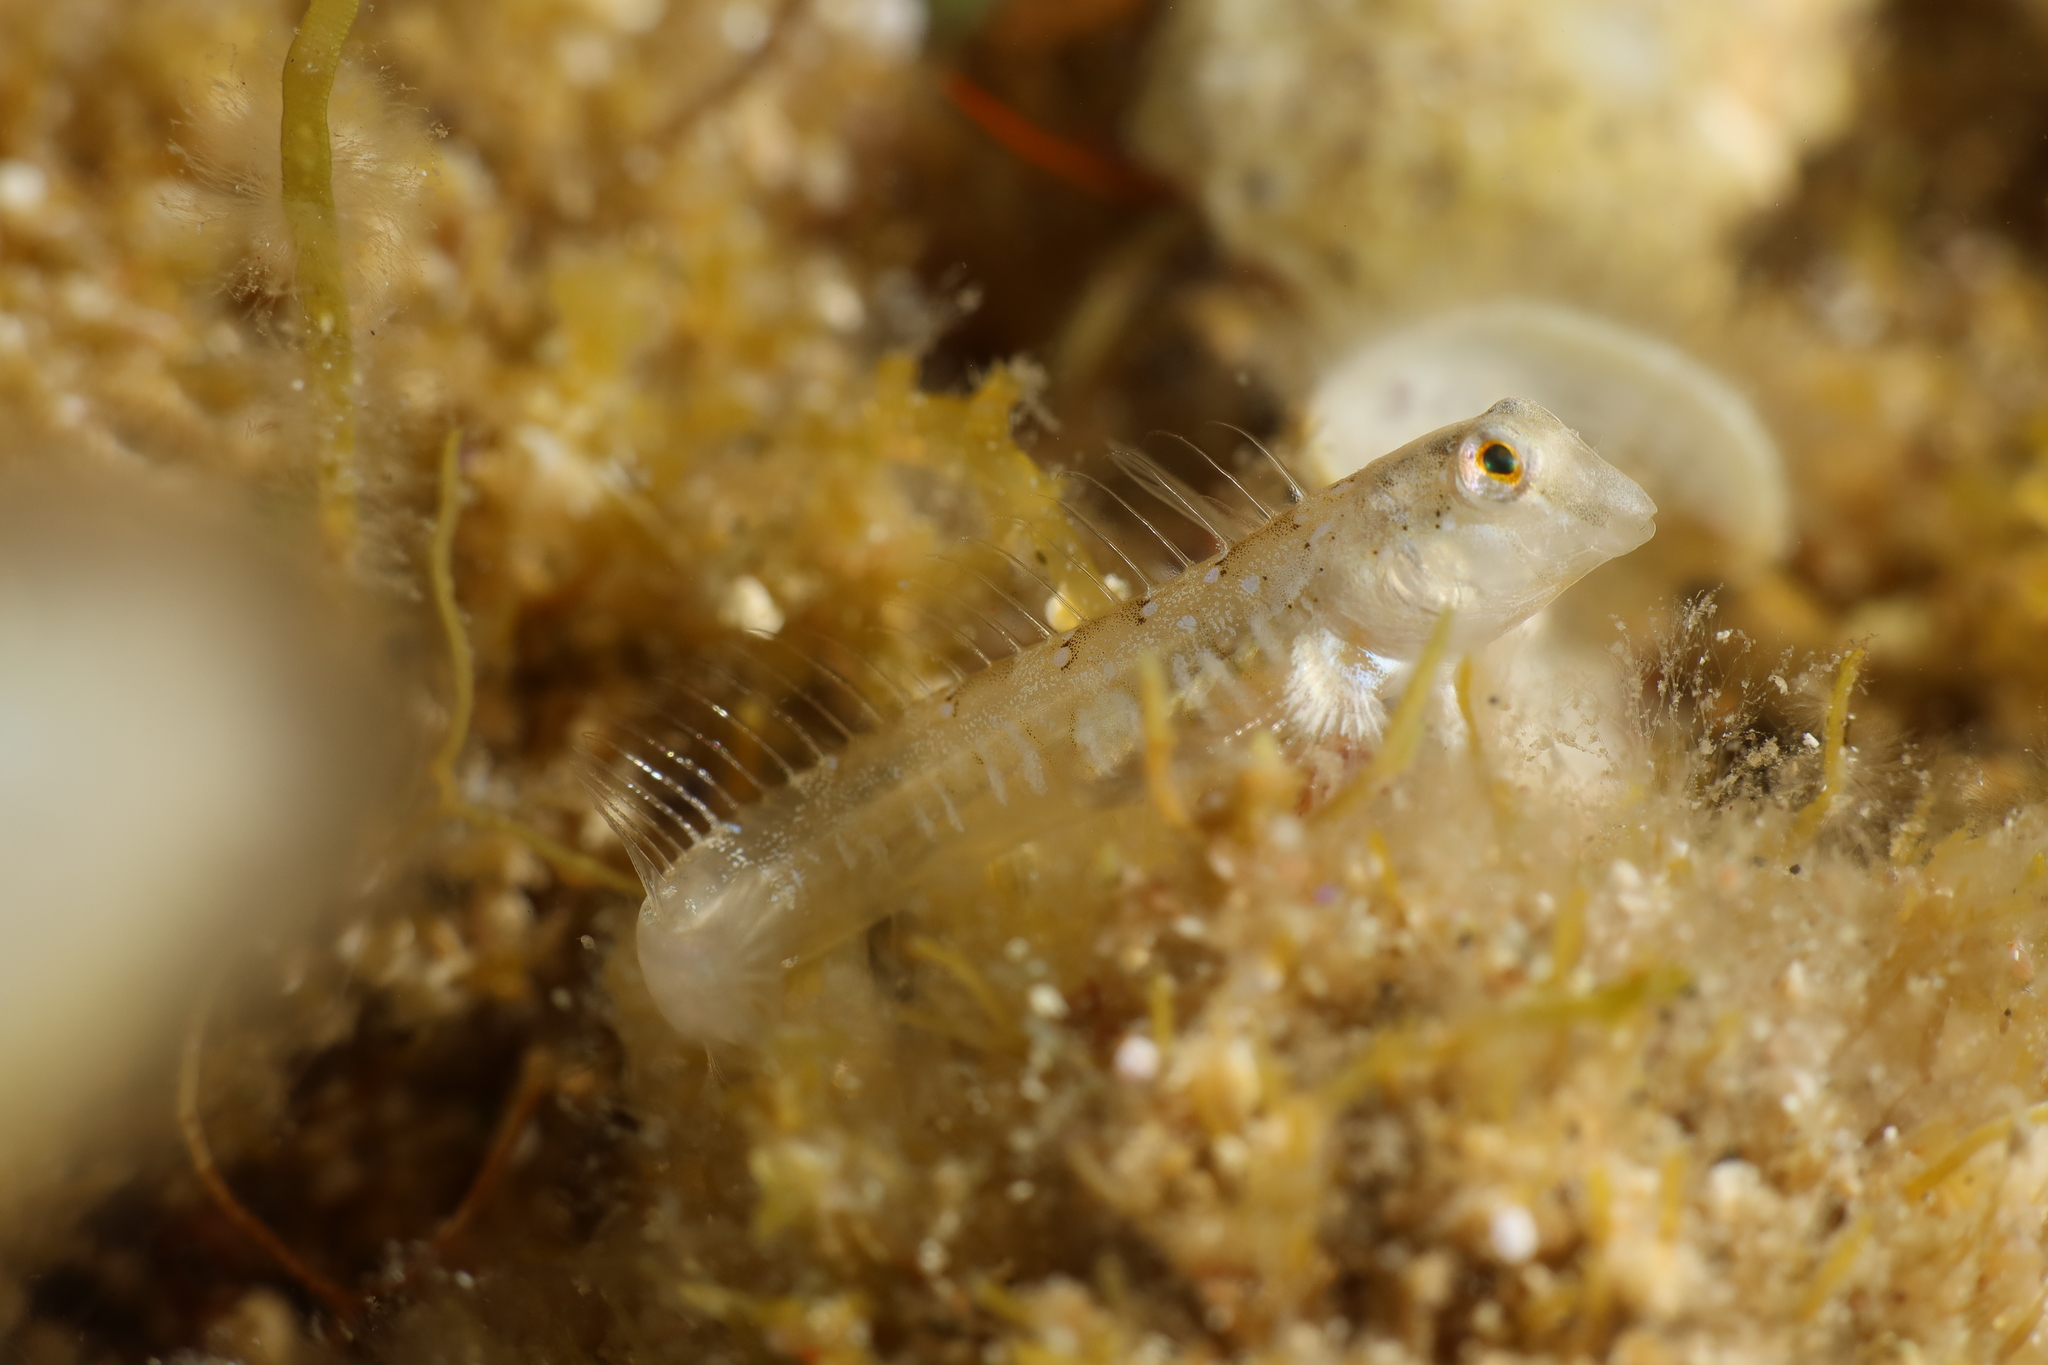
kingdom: Animalia
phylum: Chordata
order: Perciformes
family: Blenniidae
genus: Microlipophrys
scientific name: Microlipophrys dalmatinus
